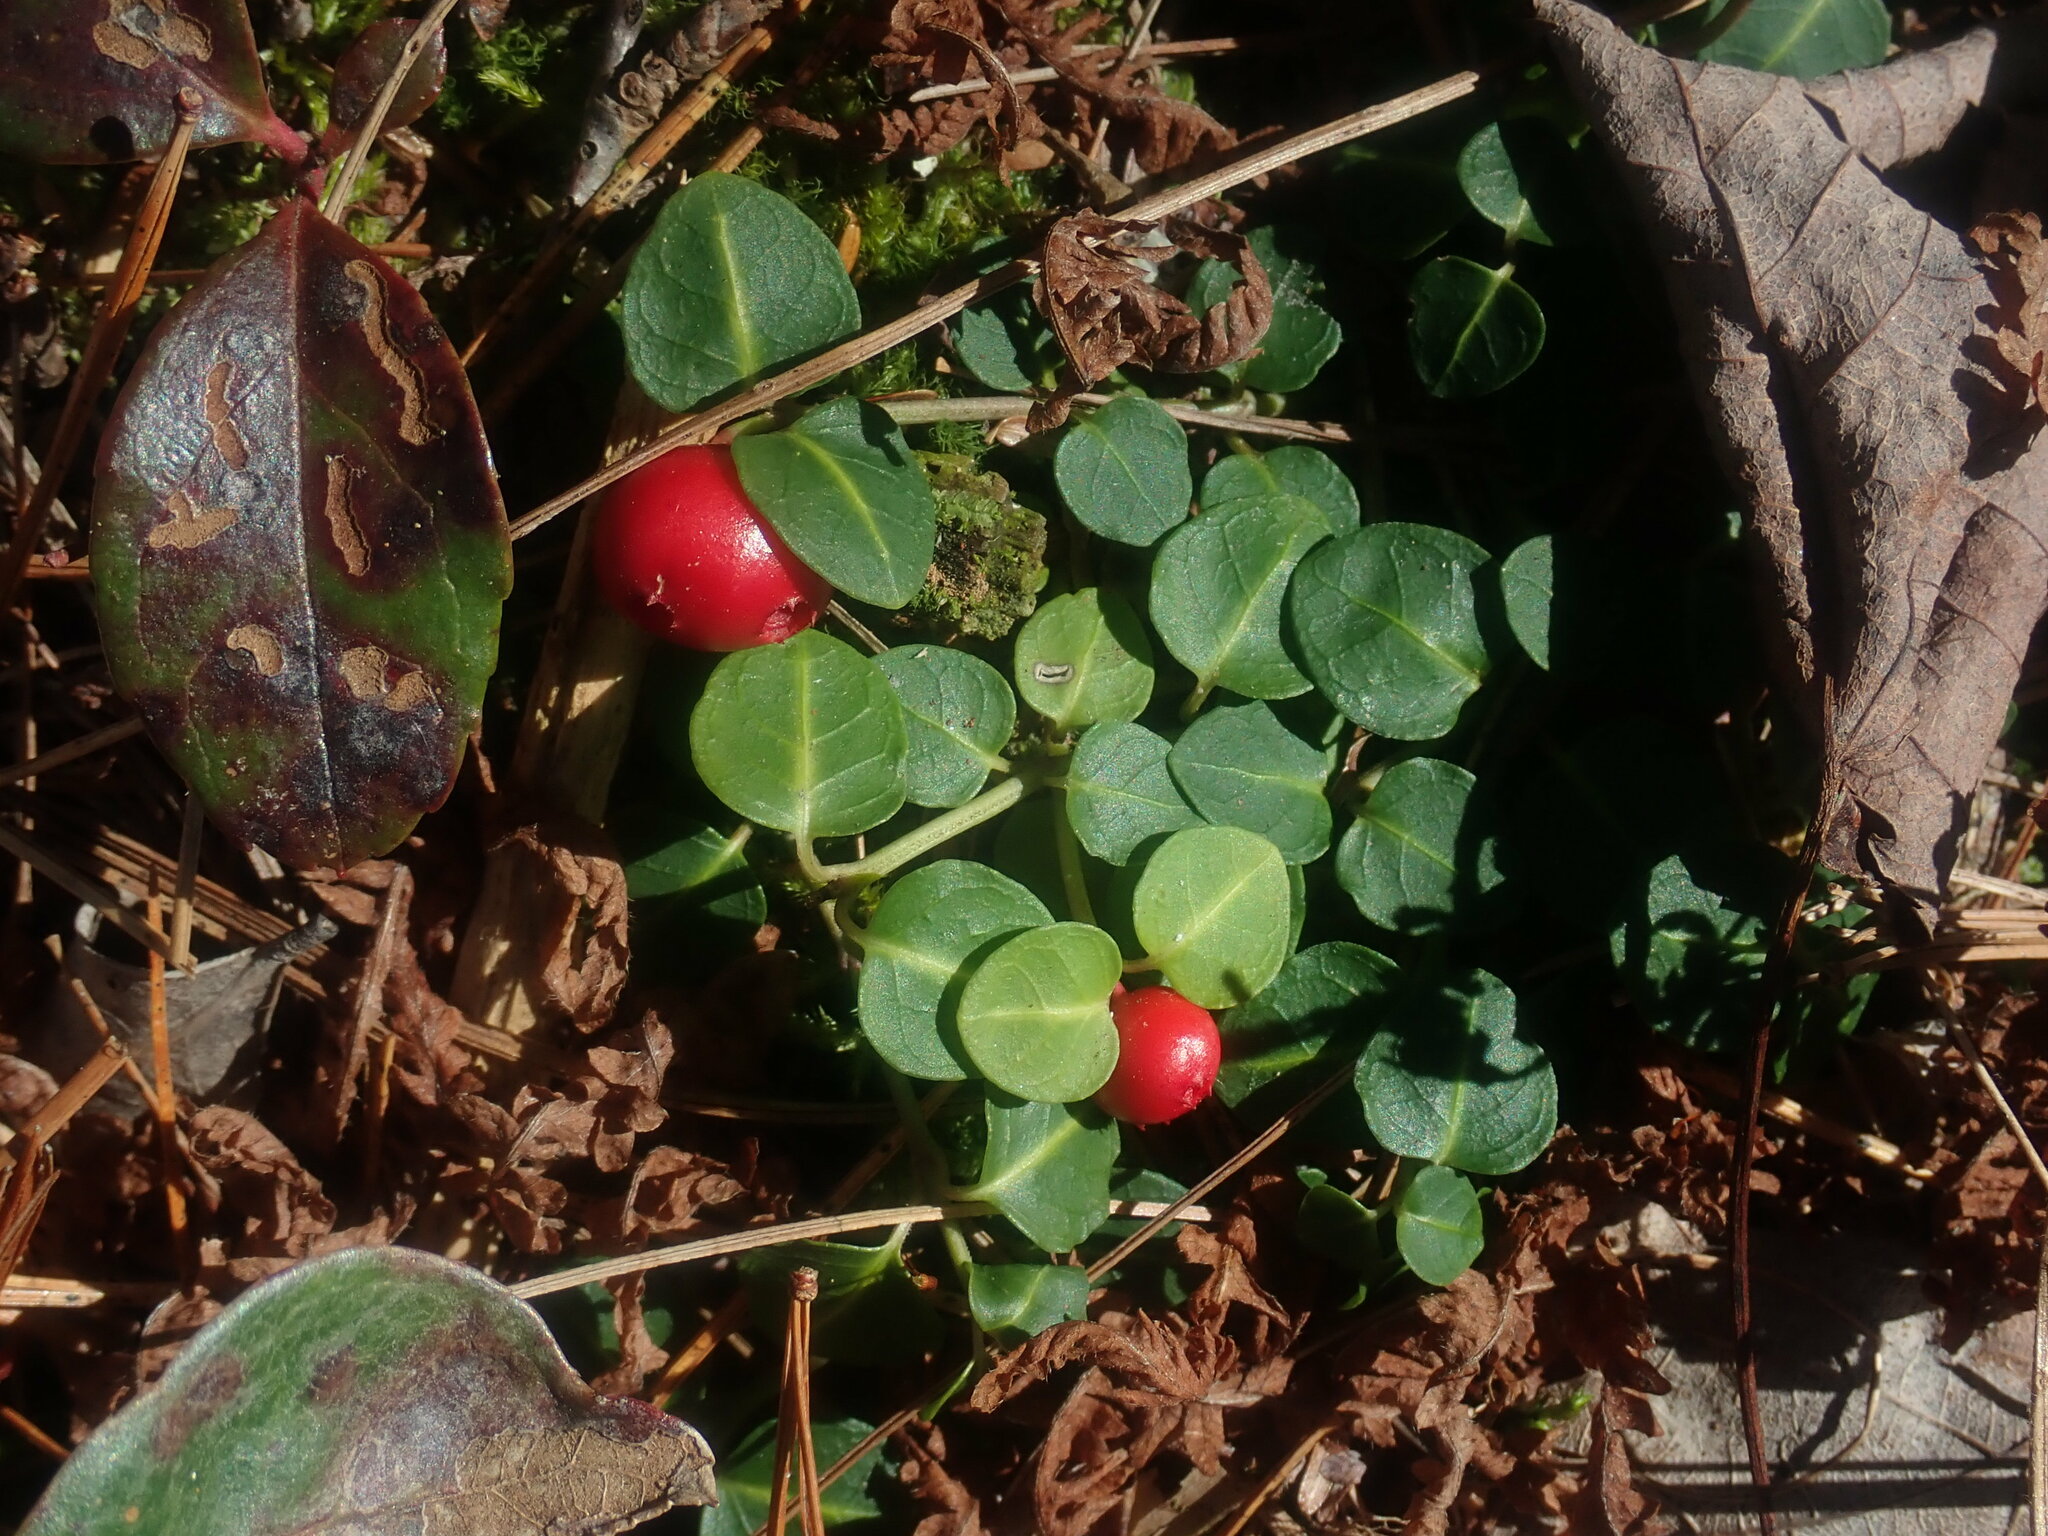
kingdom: Plantae
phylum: Tracheophyta
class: Magnoliopsida
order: Gentianales
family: Rubiaceae
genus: Mitchella
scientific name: Mitchella repens
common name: Partridge-berry
